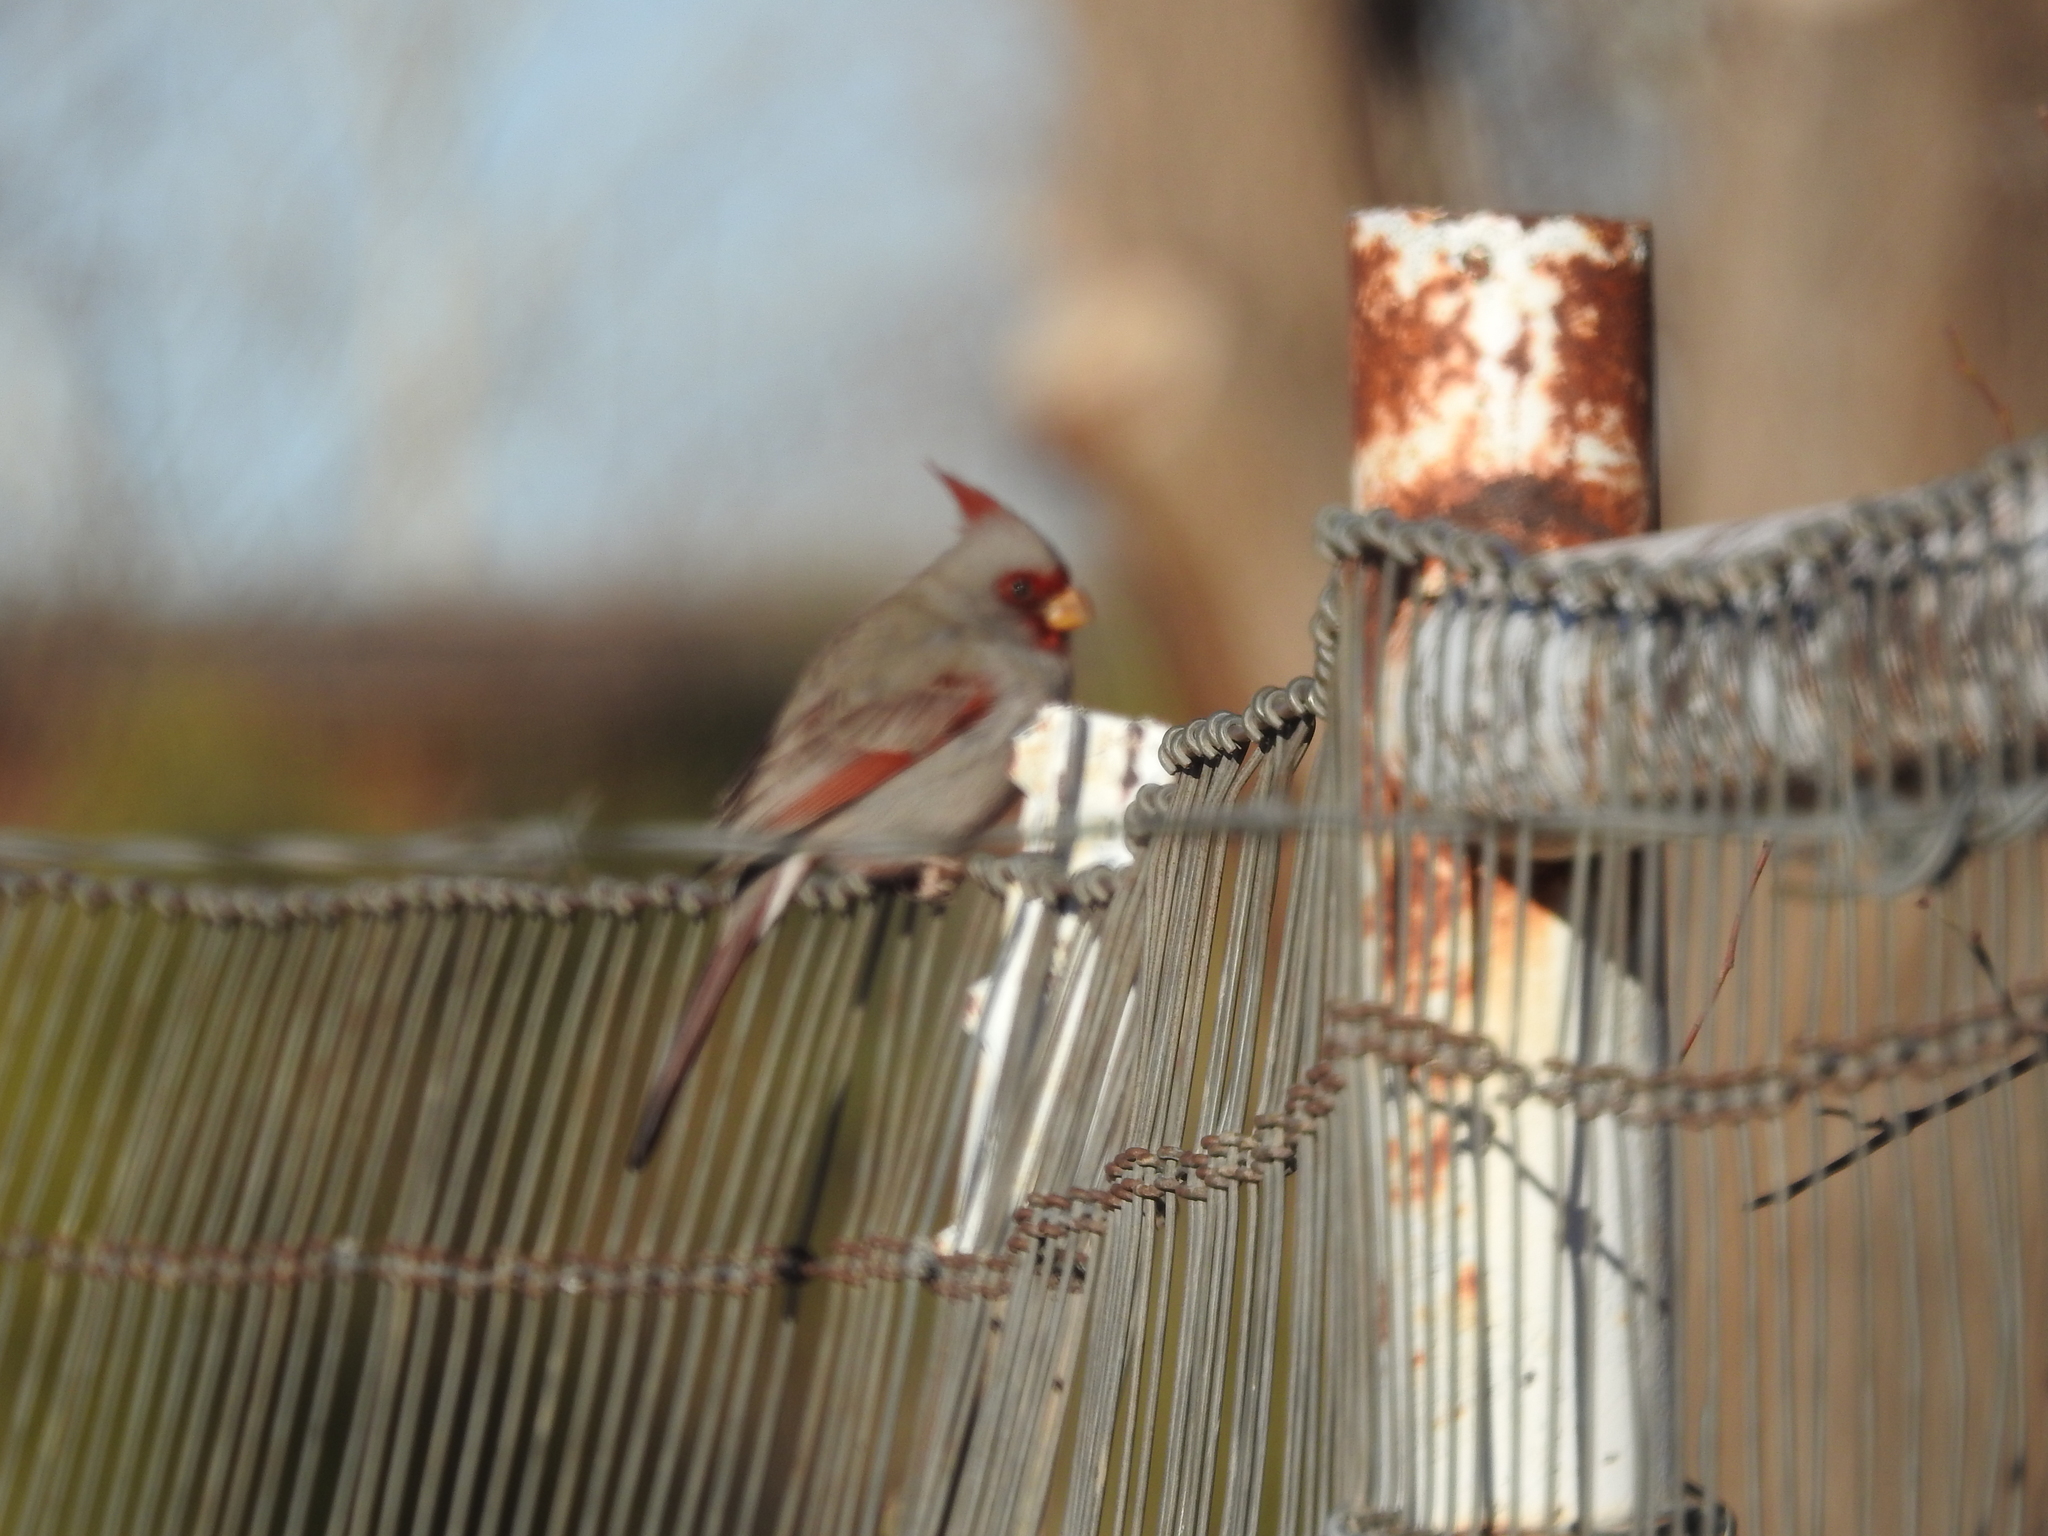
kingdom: Animalia
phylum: Chordata
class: Aves
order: Passeriformes
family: Cardinalidae
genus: Cardinalis
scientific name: Cardinalis sinuatus
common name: Pyrrhuloxia
